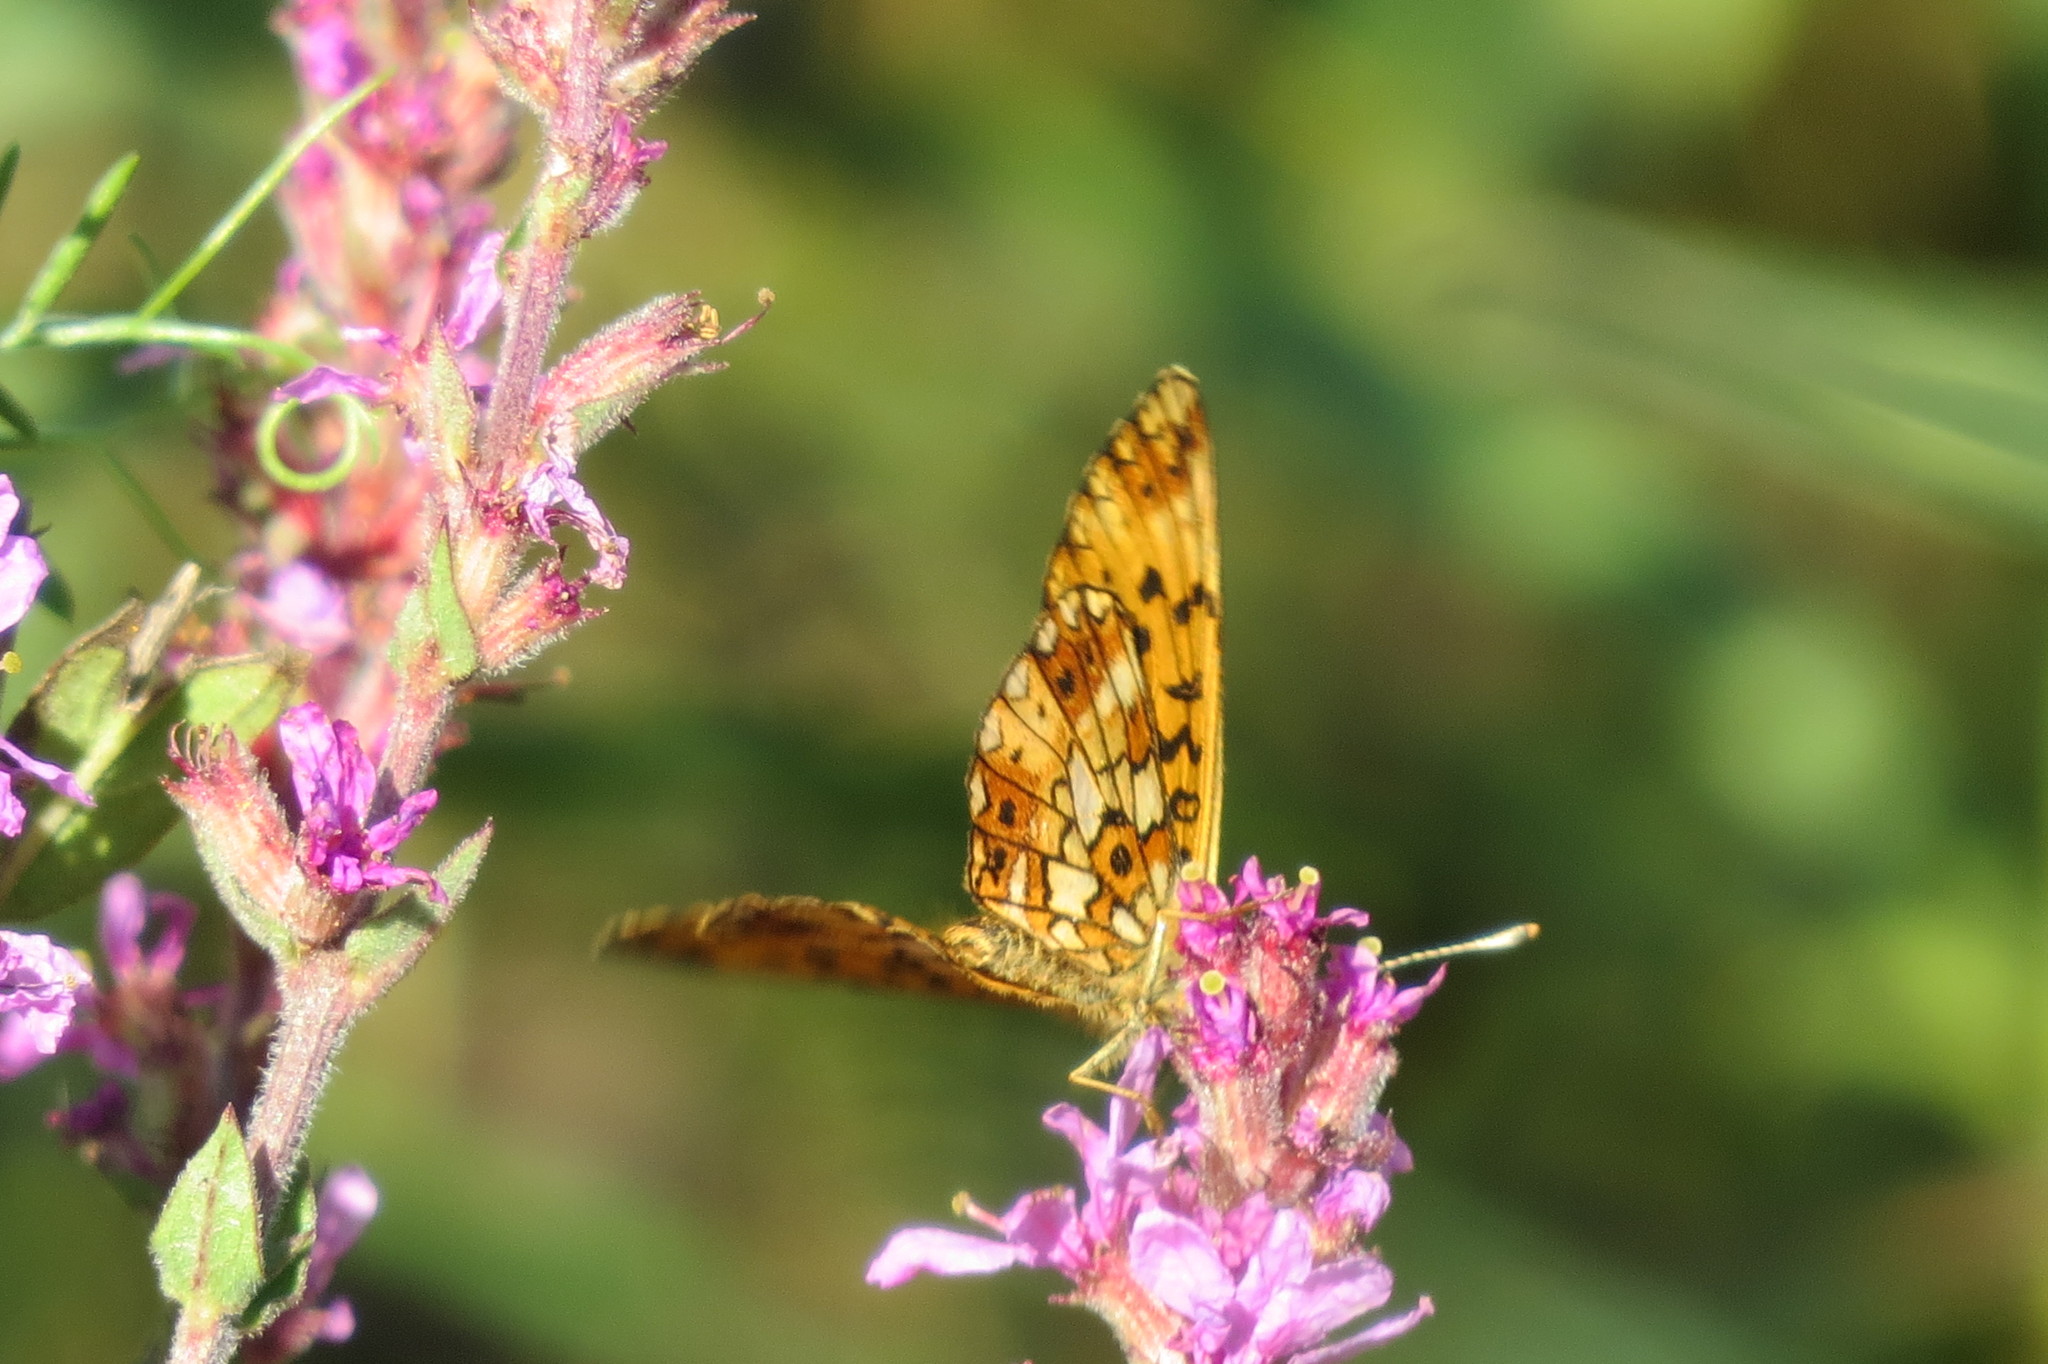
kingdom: Animalia
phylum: Arthropoda
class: Insecta
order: Lepidoptera
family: Nymphalidae
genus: Boloria
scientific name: Boloria selene
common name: Small pearl-bordered fritillary
